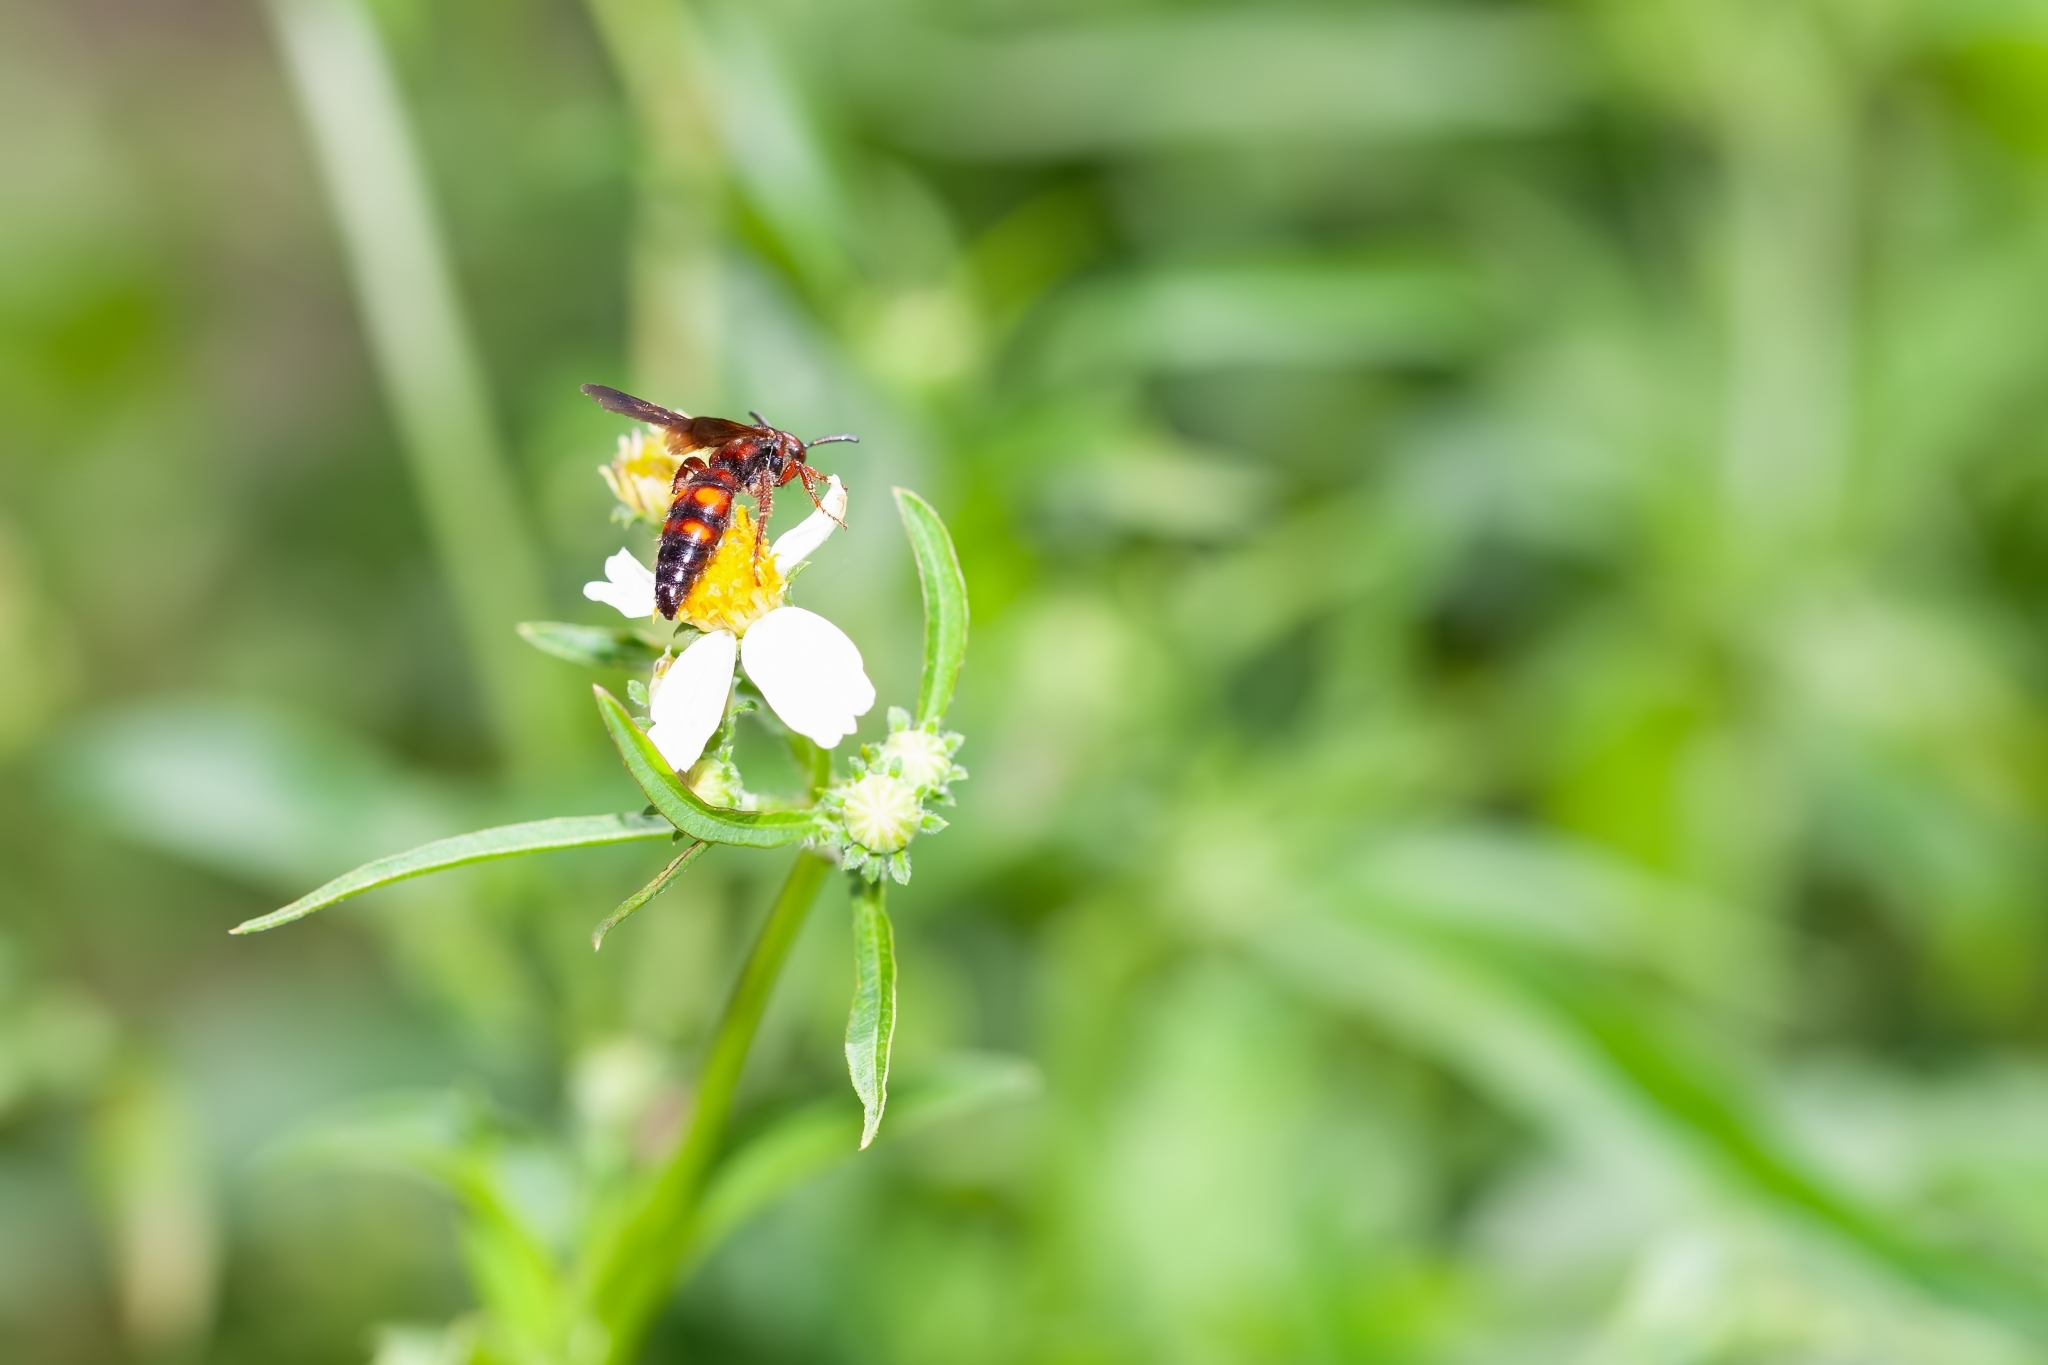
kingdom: Animalia
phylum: Arthropoda
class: Insecta
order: Hymenoptera
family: Scoliidae
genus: Scolia
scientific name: Scolia nobilitata
